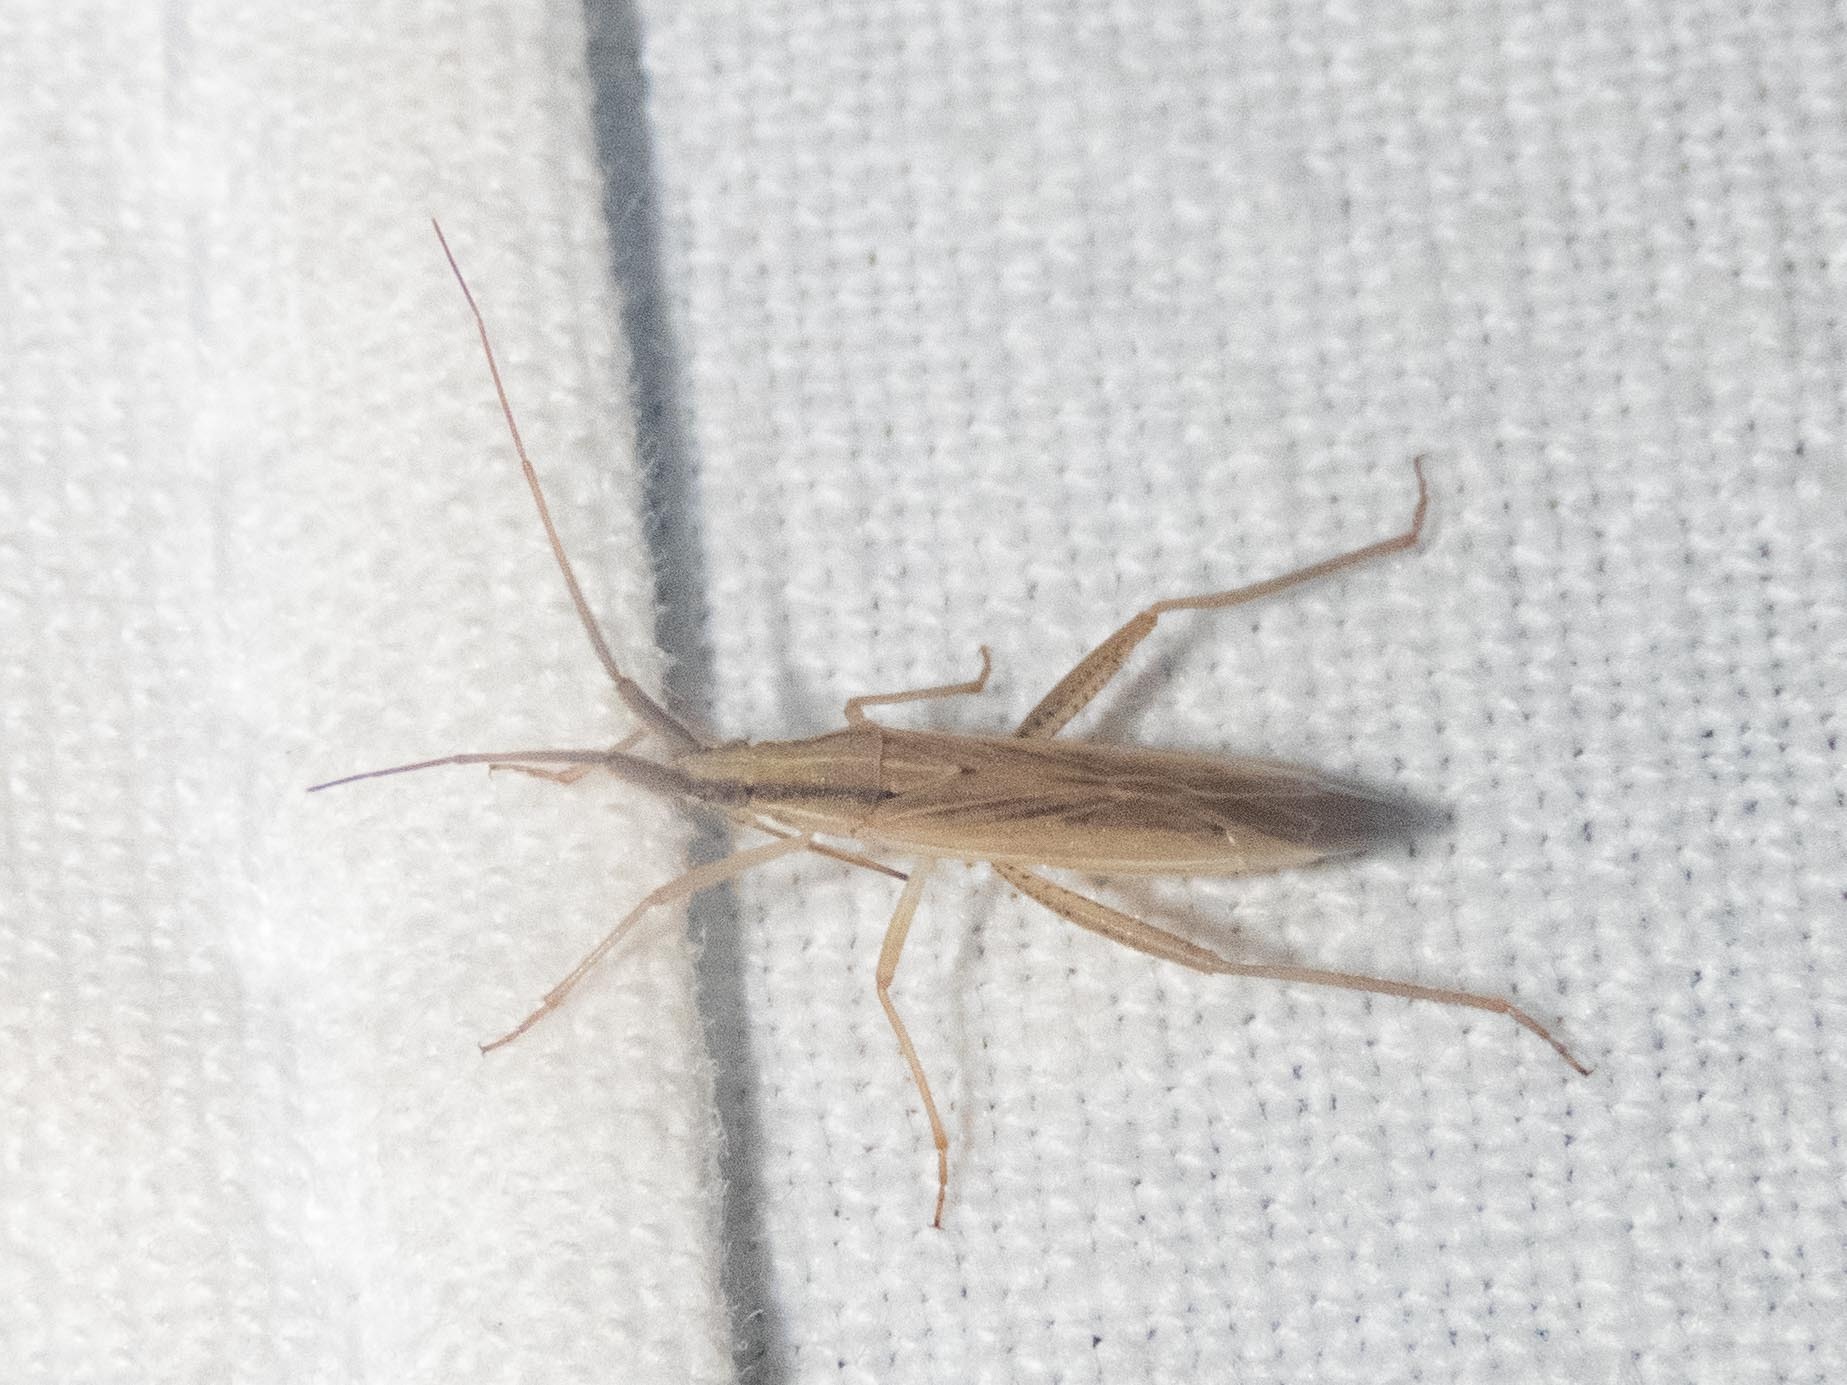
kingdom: Animalia
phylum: Arthropoda
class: Insecta
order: Hemiptera
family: Miridae
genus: Stenodema
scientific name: Stenodema laevigata
